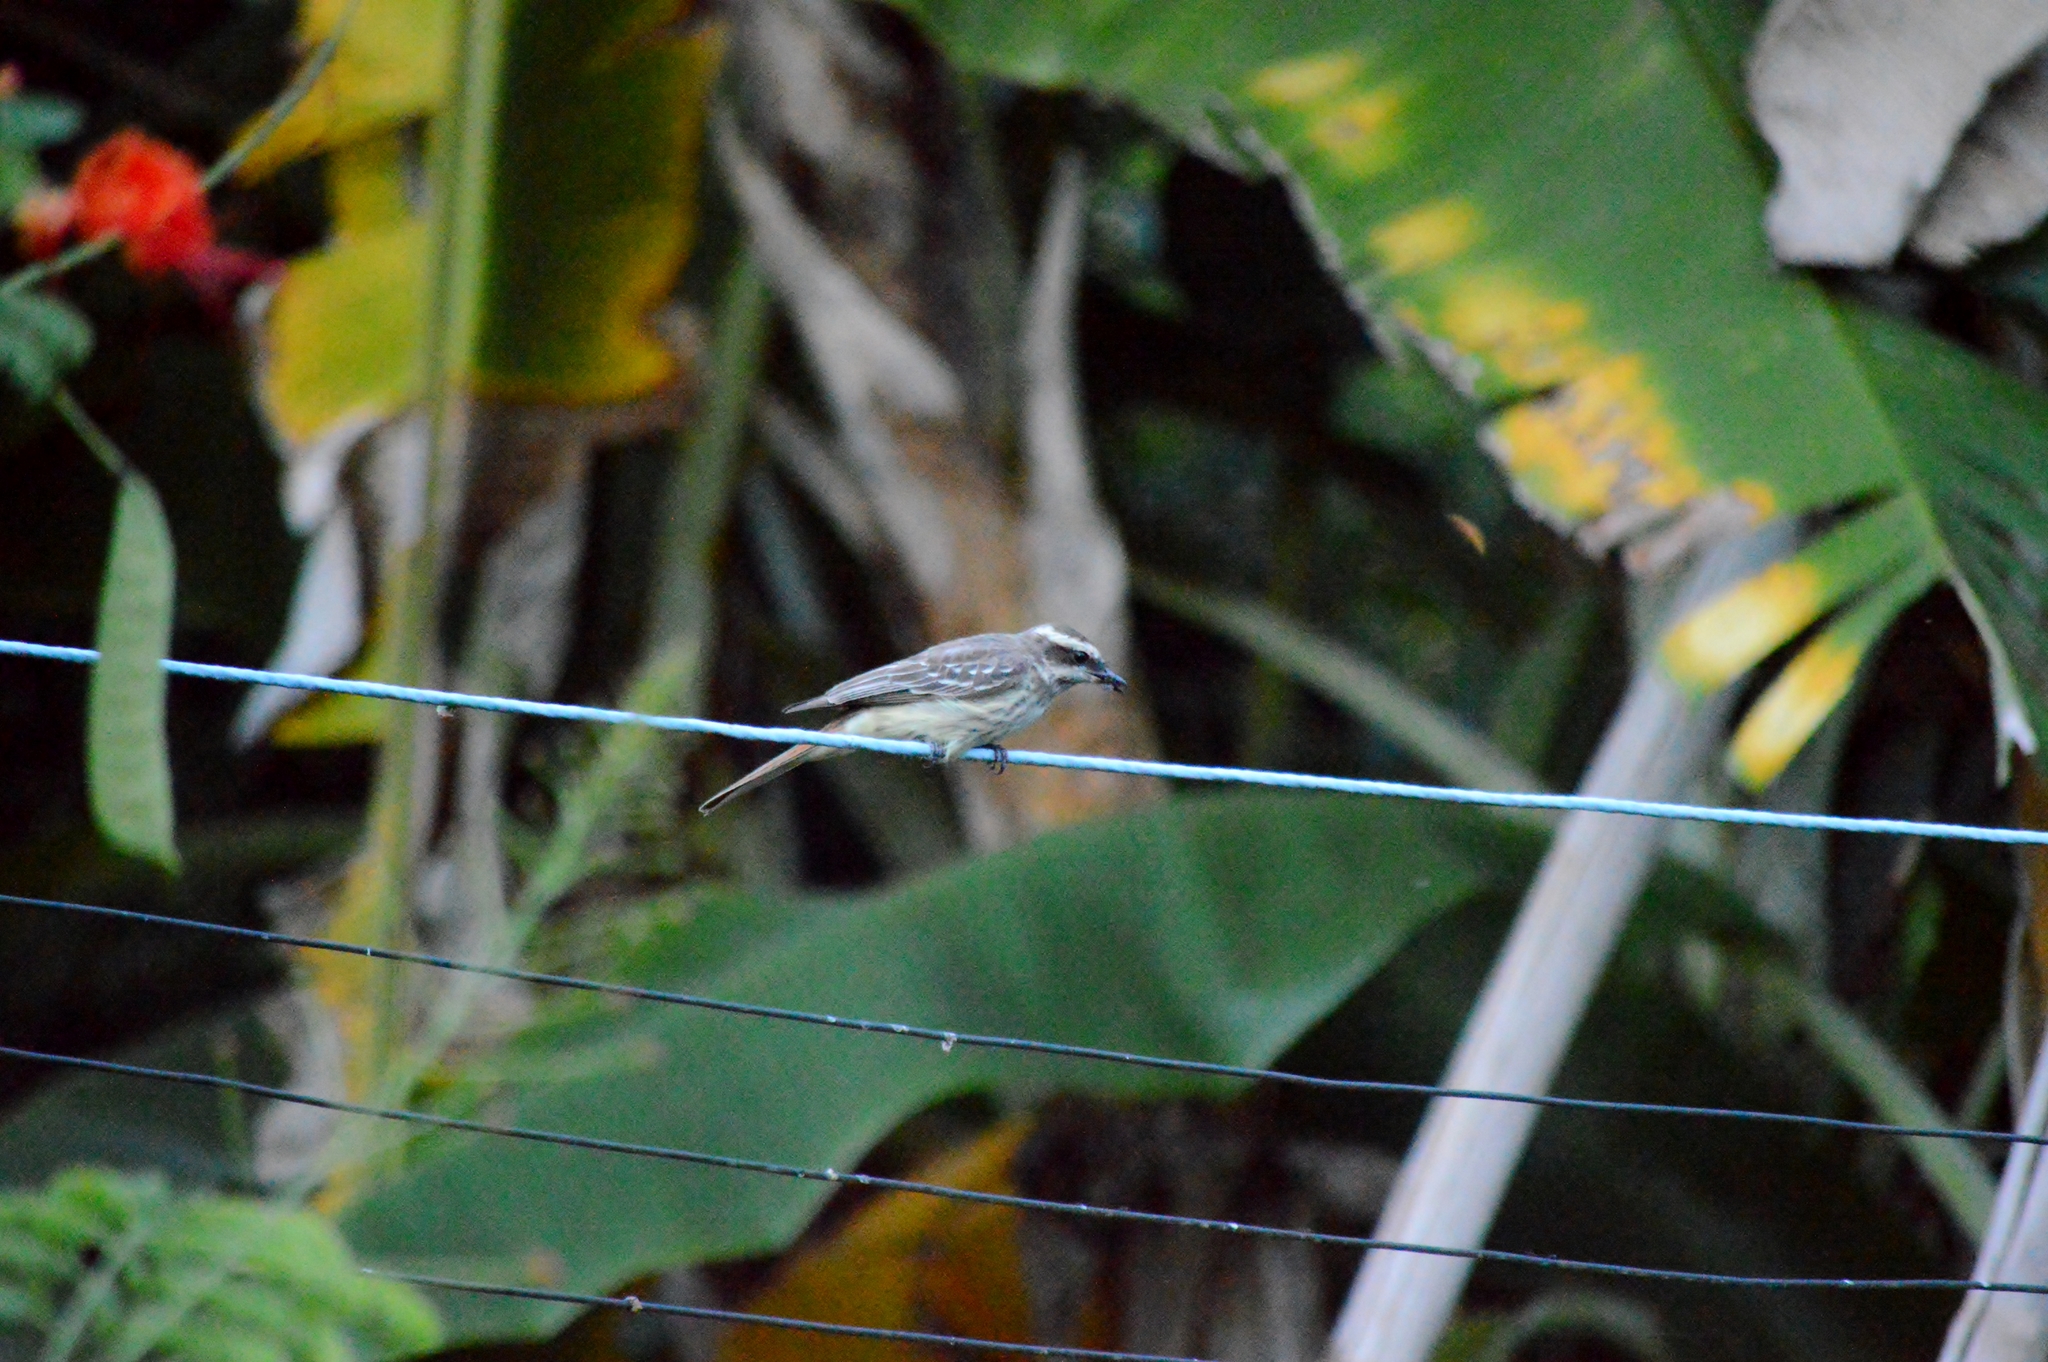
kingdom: Animalia
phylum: Chordata
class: Aves
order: Passeriformes
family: Tyrannidae
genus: Empidonomus
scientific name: Empidonomus varius
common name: Variegated flycatcher
